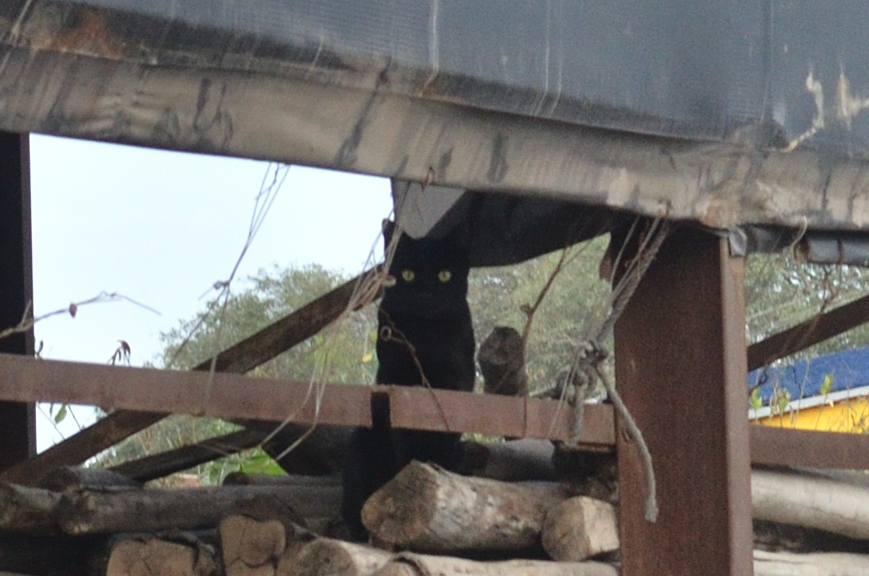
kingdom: Animalia
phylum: Chordata
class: Mammalia
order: Carnivora
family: Felidae
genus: Felis
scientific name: Felis catus
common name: Domestic cat
